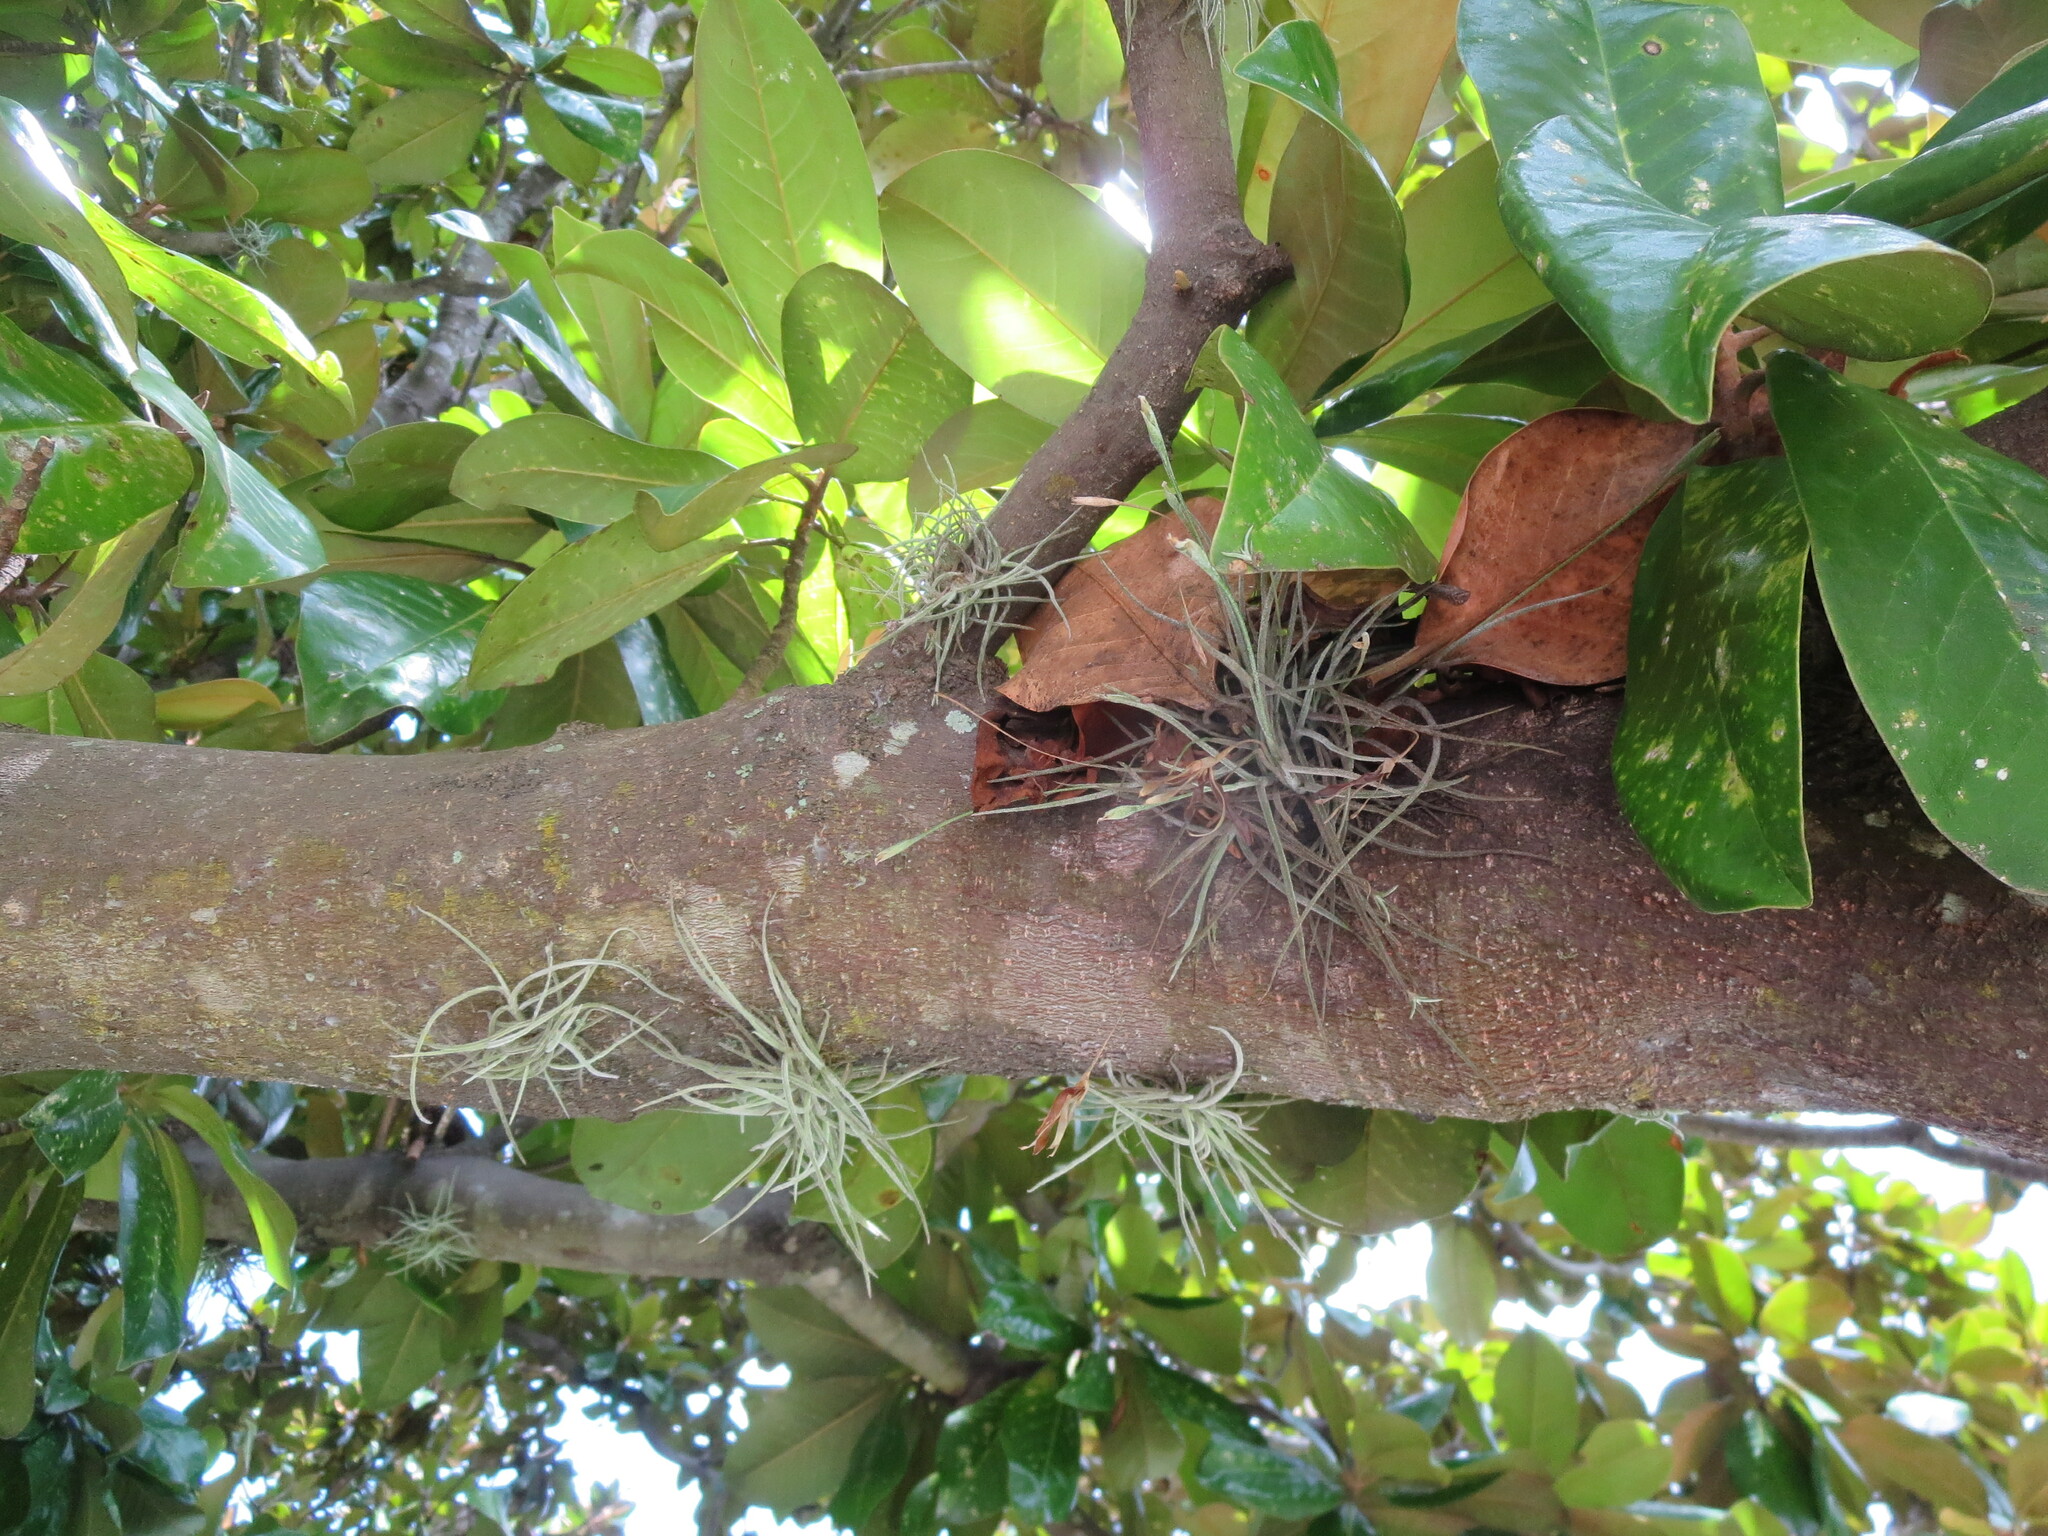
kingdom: Plantae
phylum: Tracheophyta
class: Liliopsida
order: Poales
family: Bromeliaceae
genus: Tillandsia
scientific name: Tillandsia recurvata
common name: Small ballmoss
